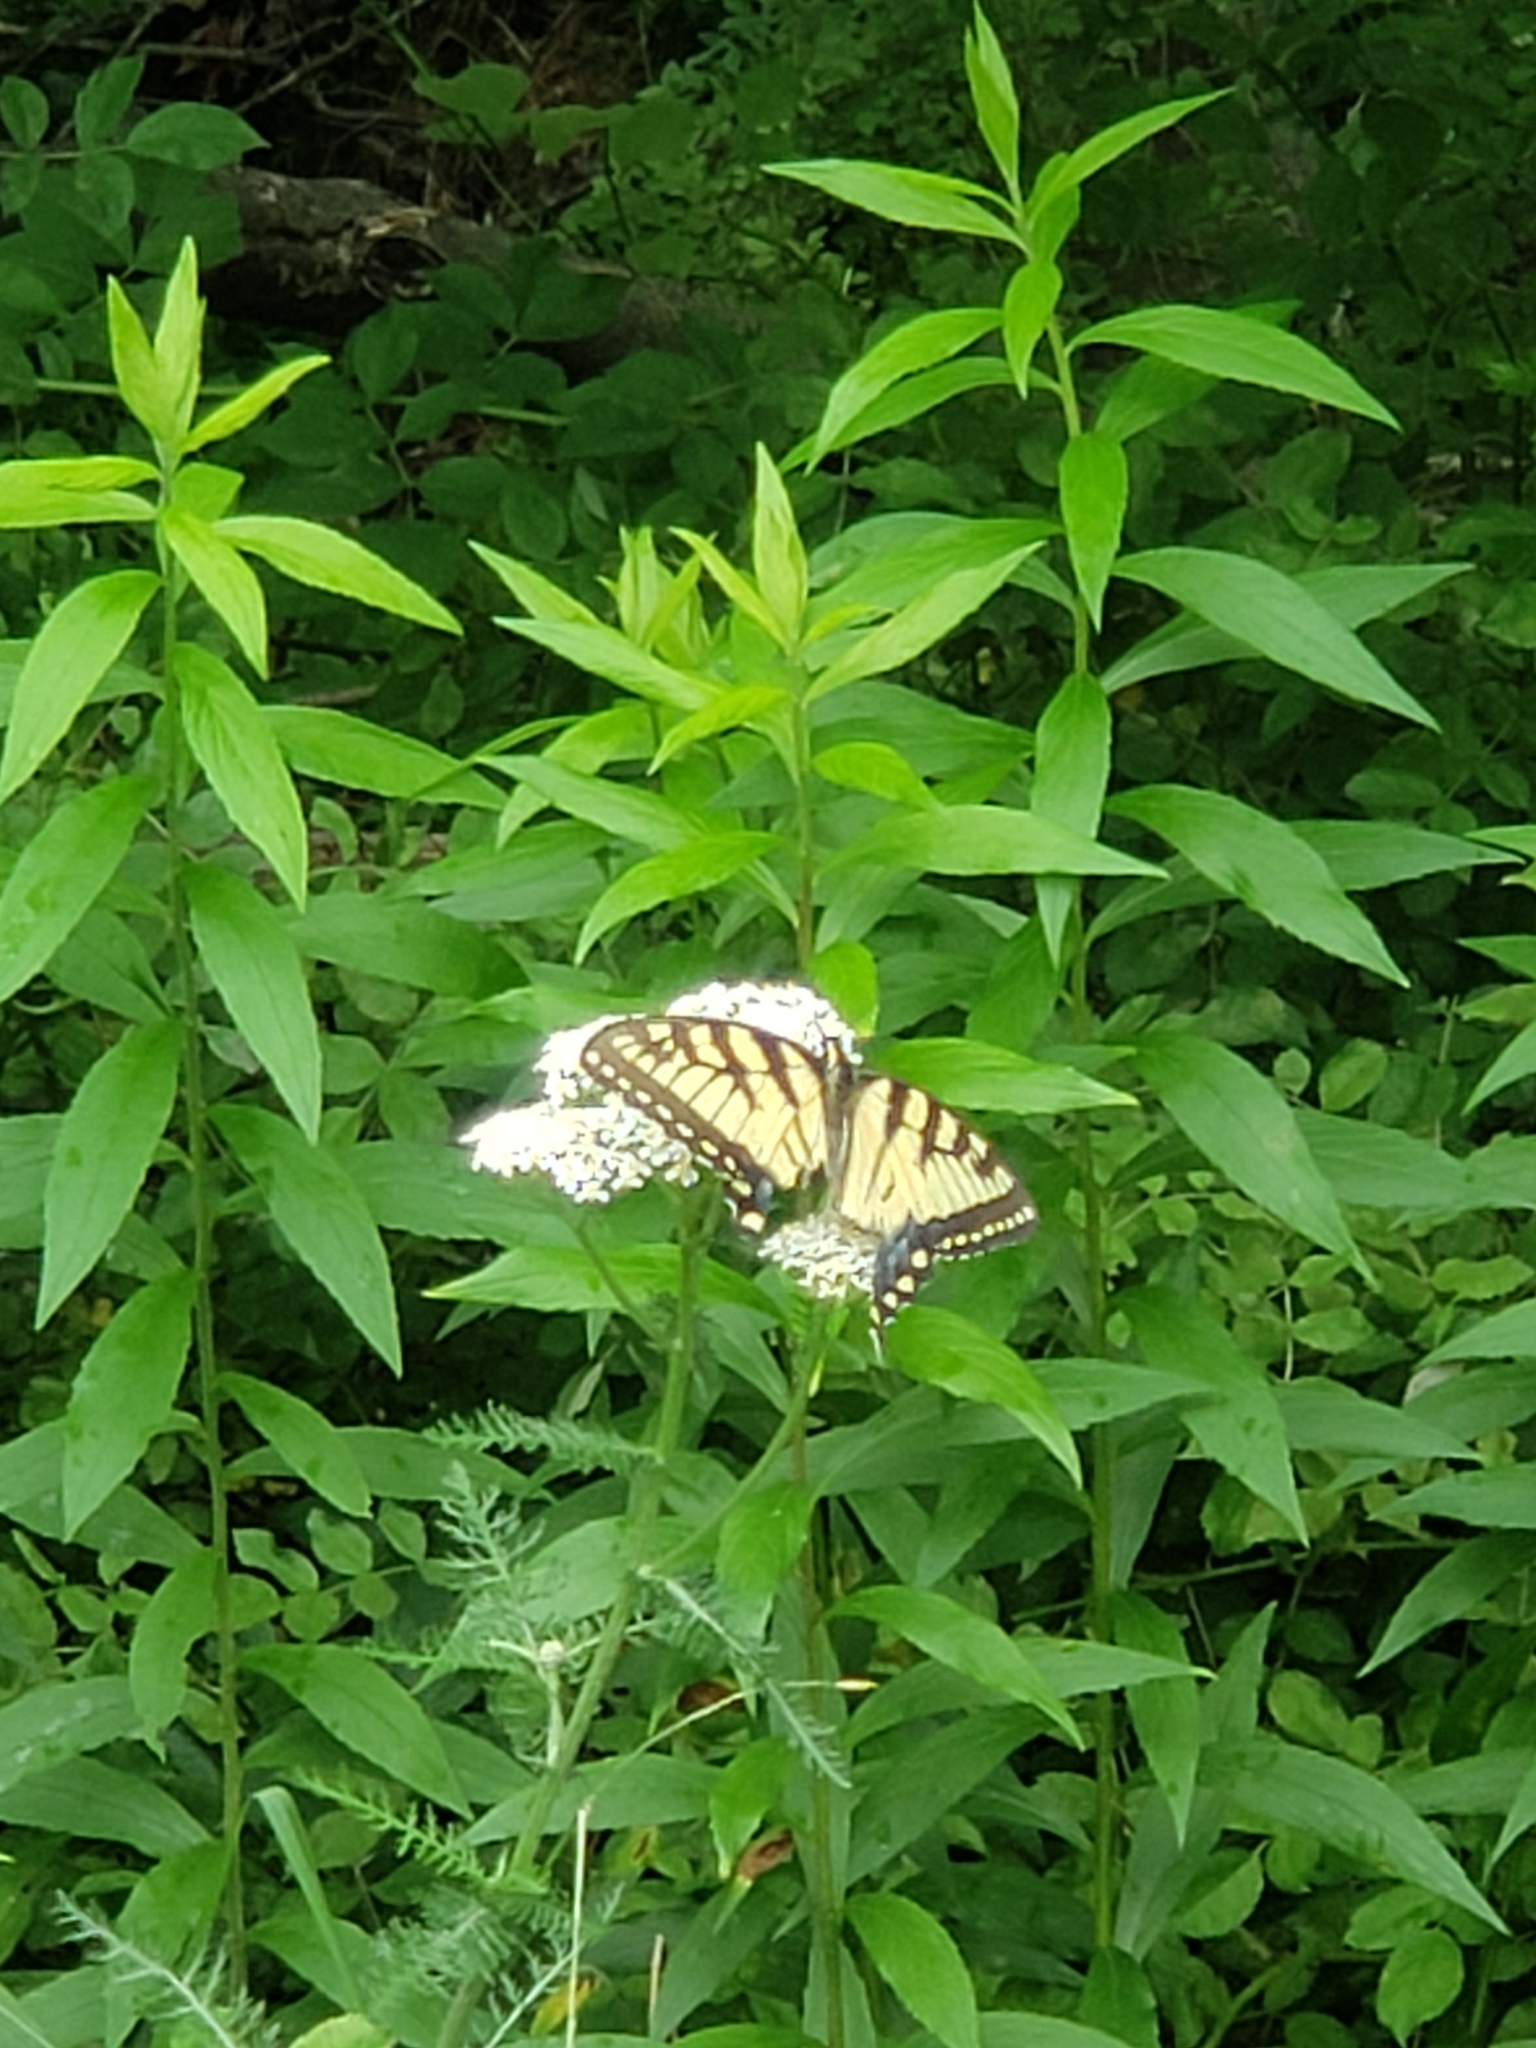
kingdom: Animalia
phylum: Arthropoda
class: Insecta
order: Lepidoptera
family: Papilionidae
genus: Papilio
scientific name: Papilio glaucus
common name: Tiger swallowtail
